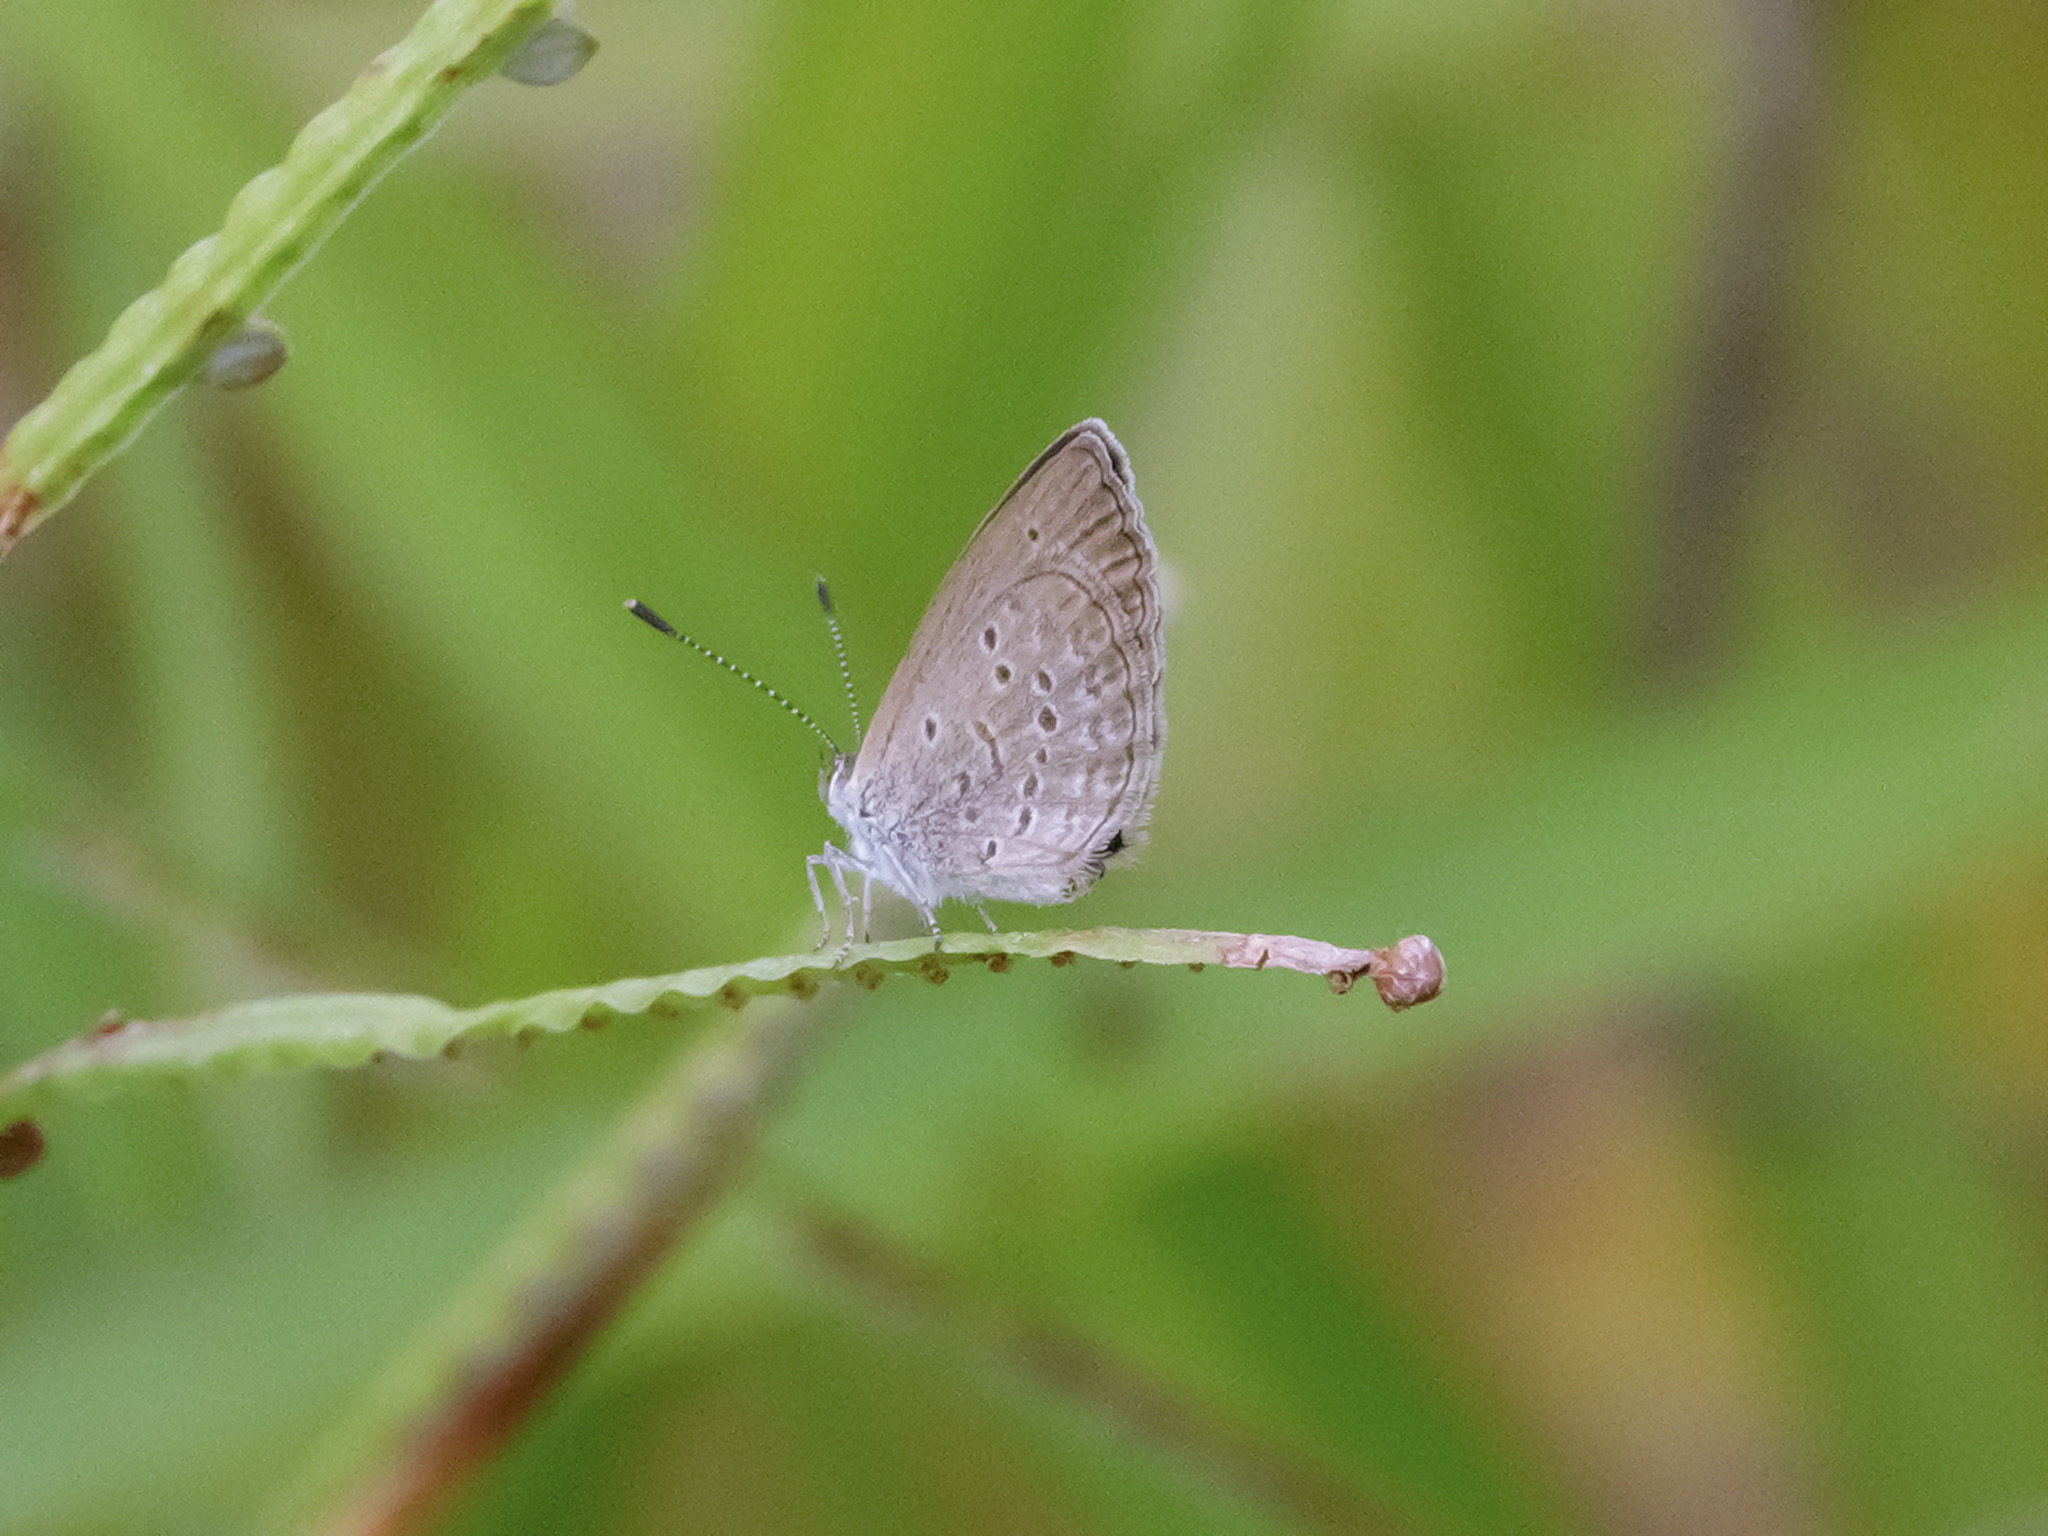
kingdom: Animalia
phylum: Arthropoda
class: Insecta
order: Lepidoptera
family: Lycaenidae
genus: Zizina
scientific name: Zizina otis
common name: Lesser grass blue
